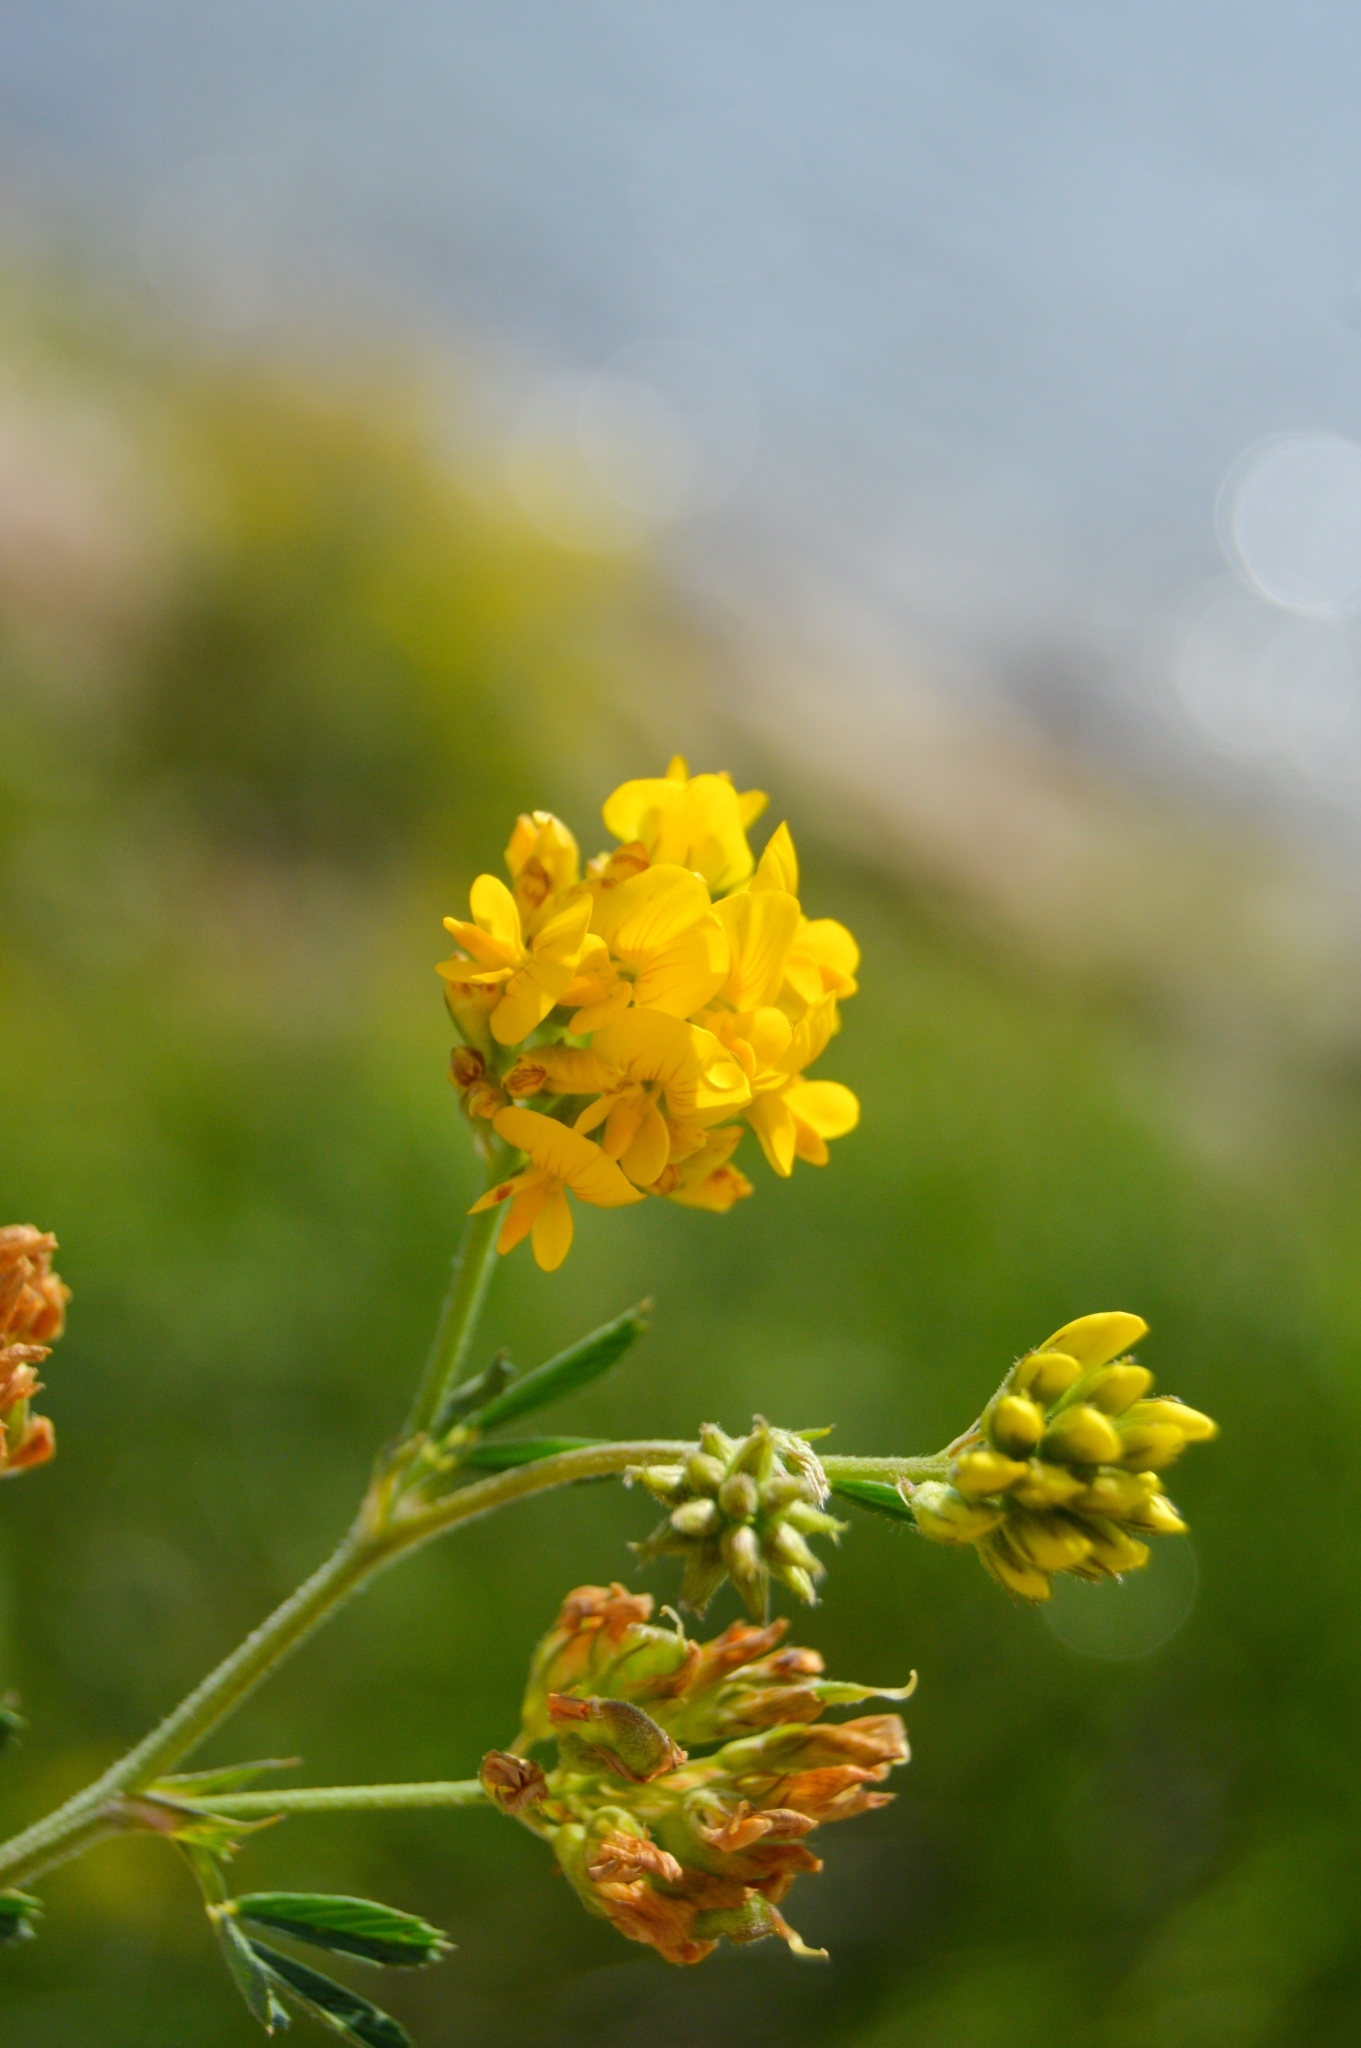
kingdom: Plantae
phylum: Tracheophyta
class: Magnoliopsida
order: Fabales
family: Fabaceae
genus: Medicago
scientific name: Medicago falcata
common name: Sickle medick
